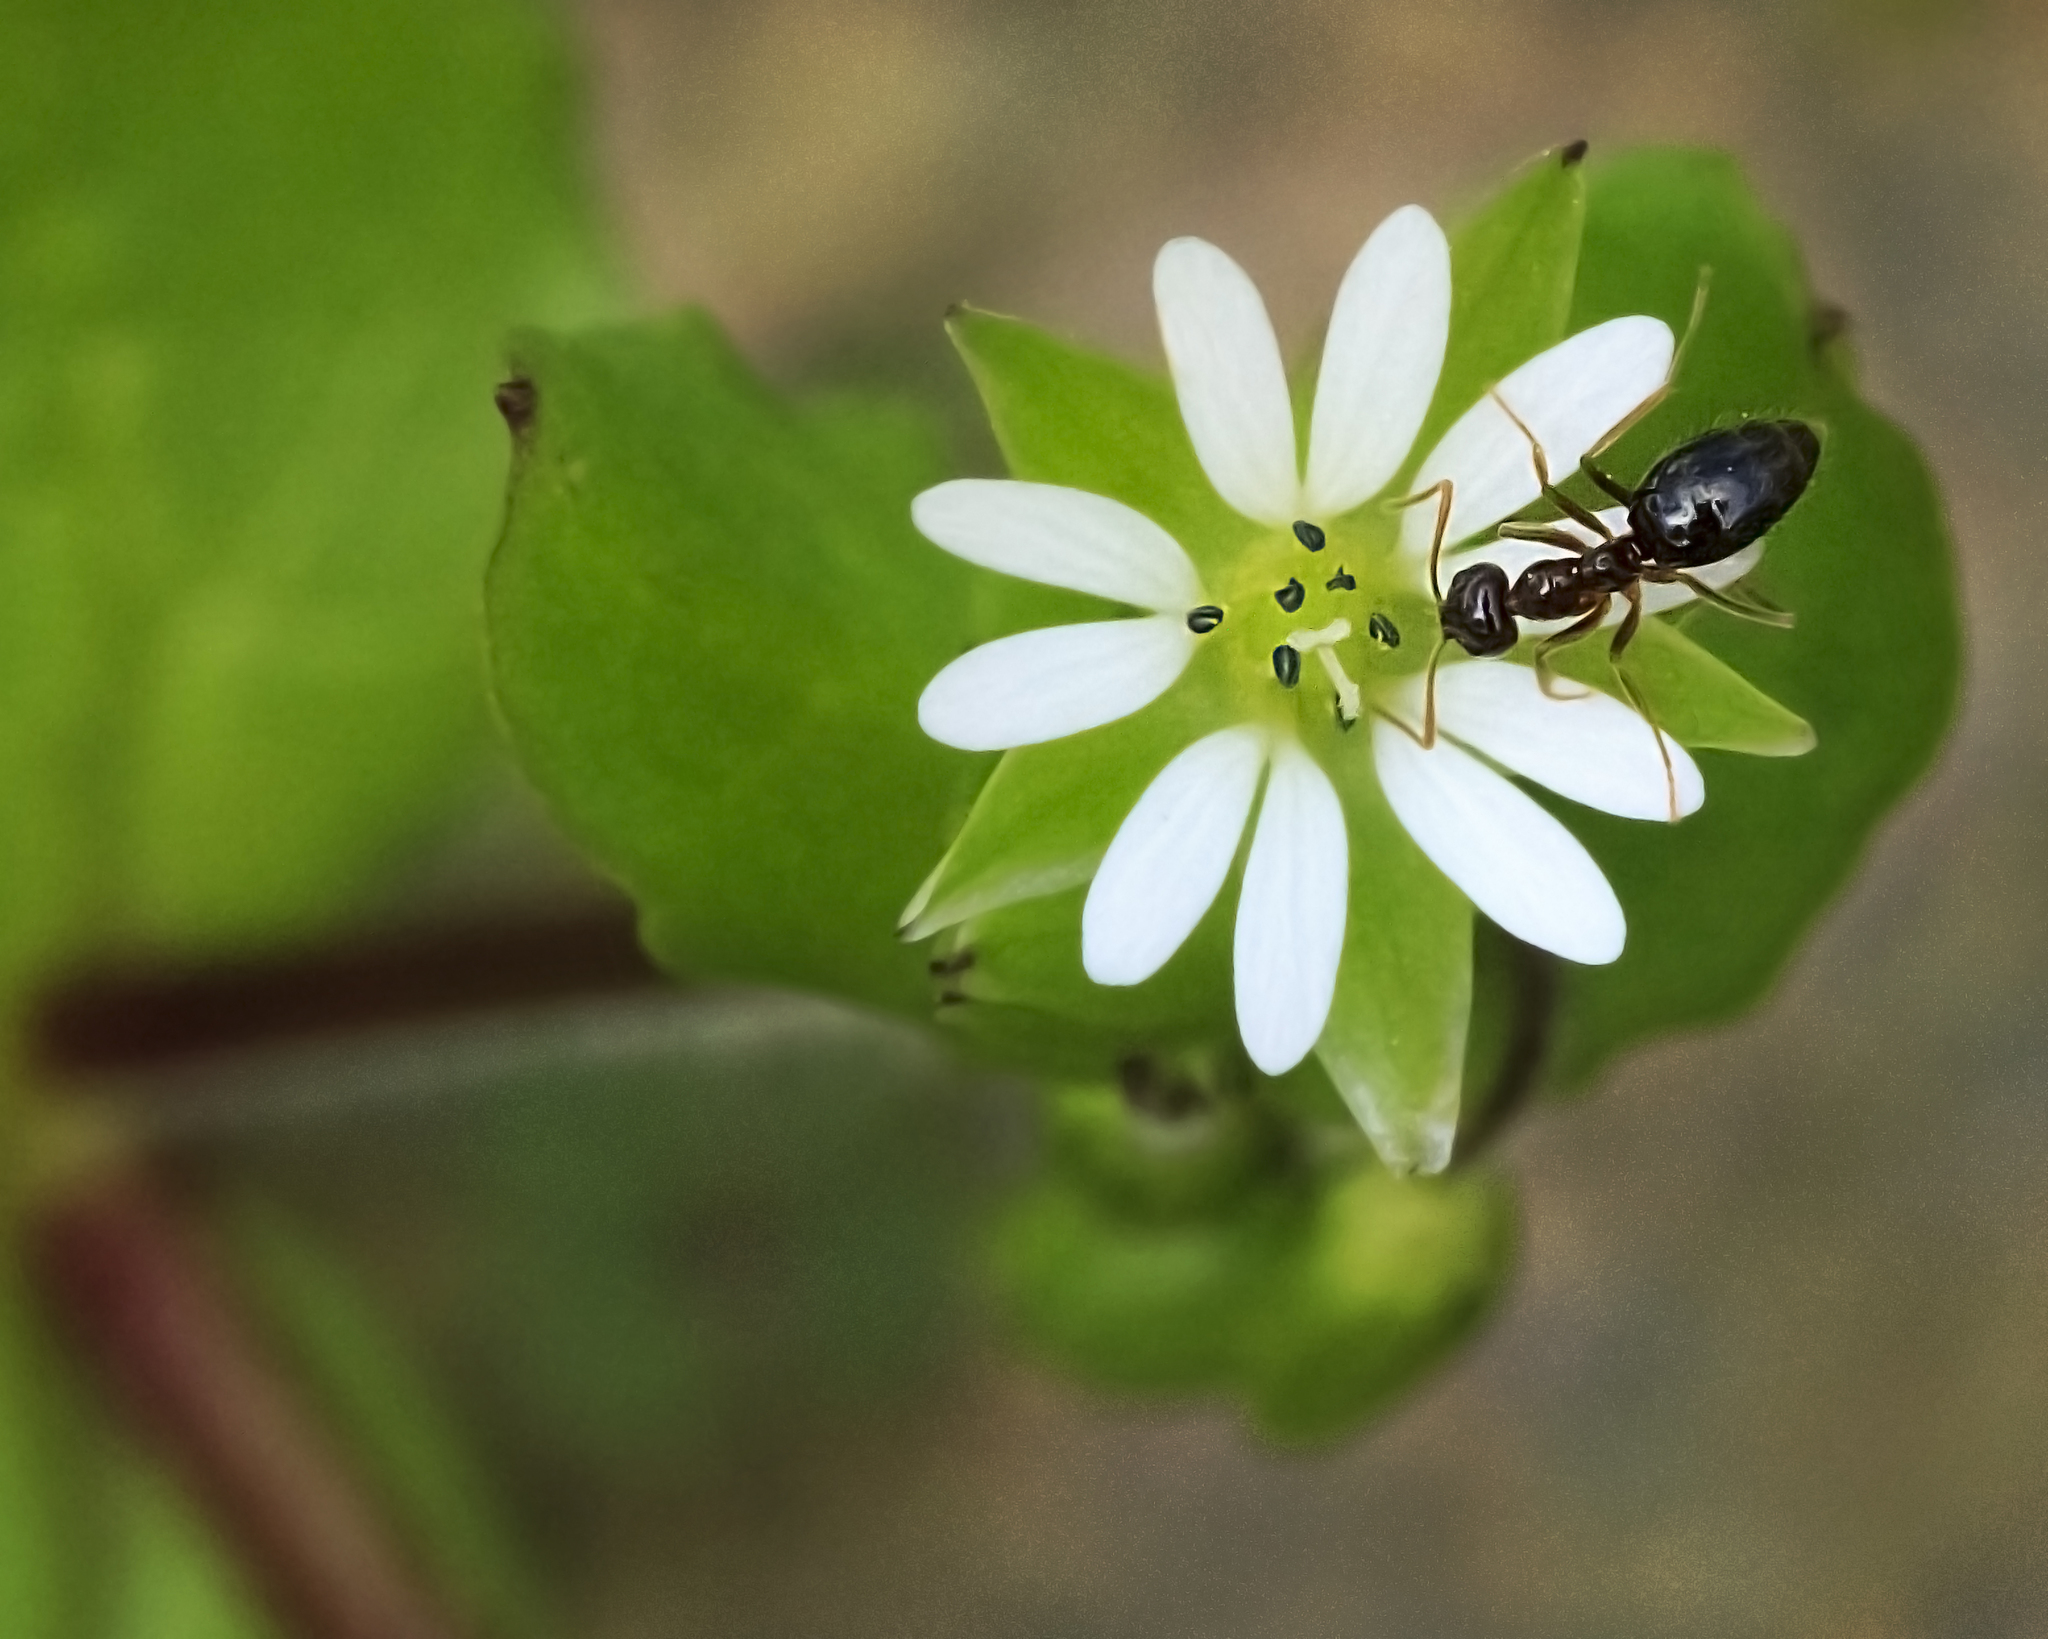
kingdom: Plantae
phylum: Tracheophyta
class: Magnoliopsida
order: Caryophyllales
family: Caryophyllaceae
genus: Stellaria
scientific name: Stellaria media
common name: Common chickweed
